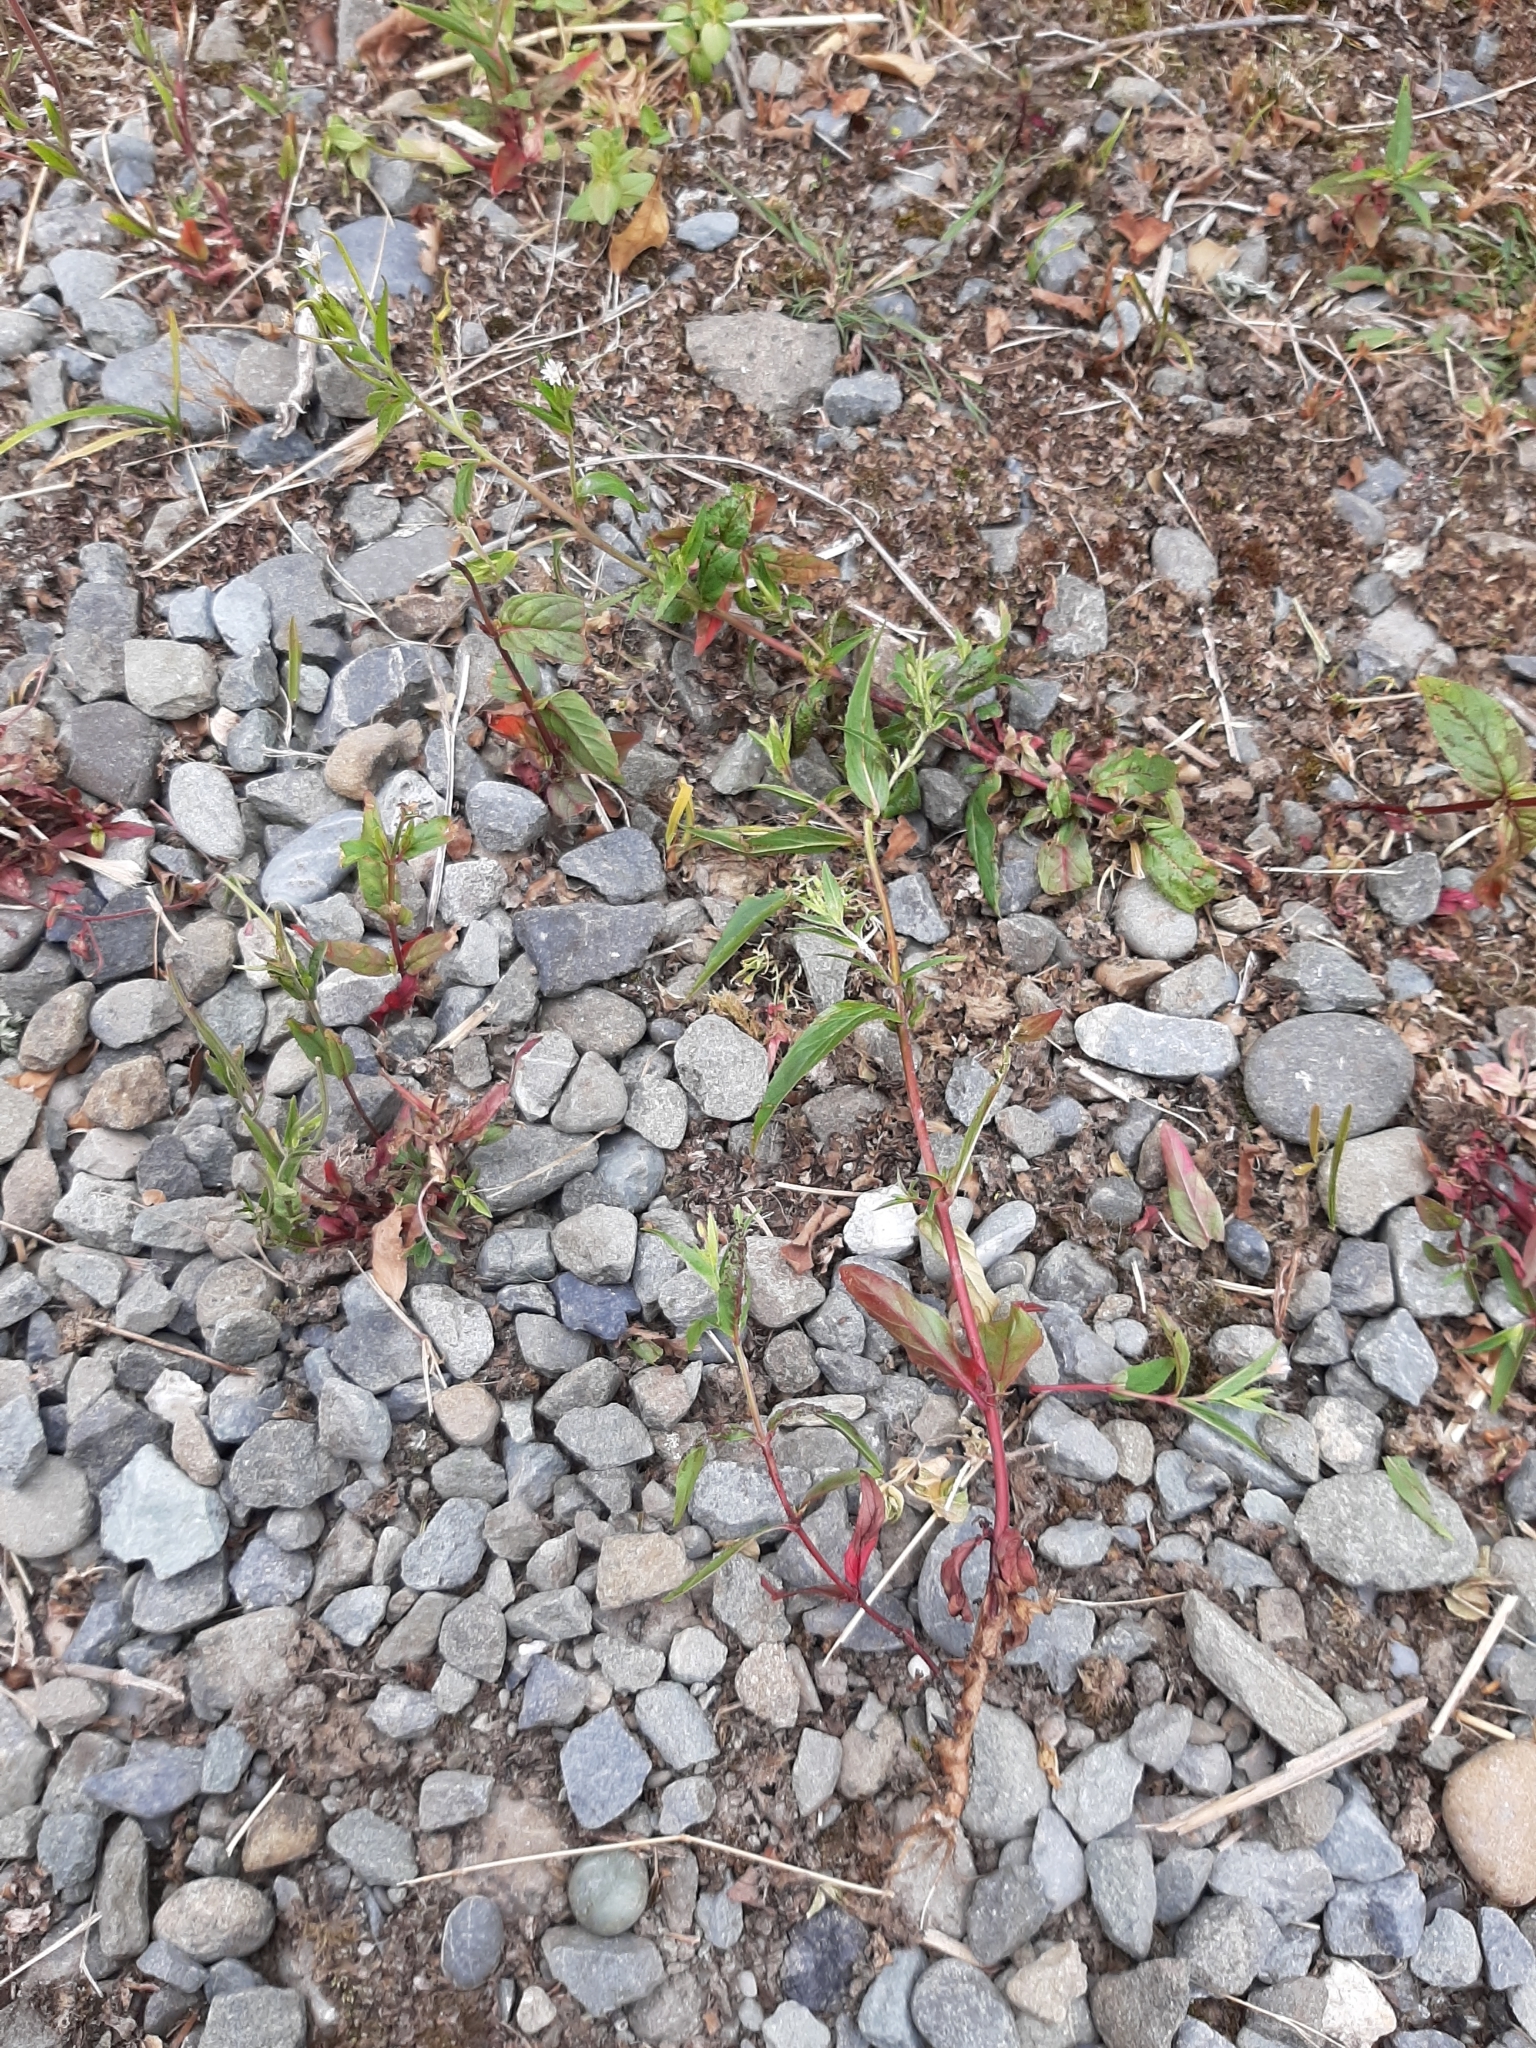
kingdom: Plantae
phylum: Tracheophyta
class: Magnoliopsida
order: Myrtales
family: Onagraceae
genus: Epilobium
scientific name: Epilobium ciliatum
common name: American willowherb
